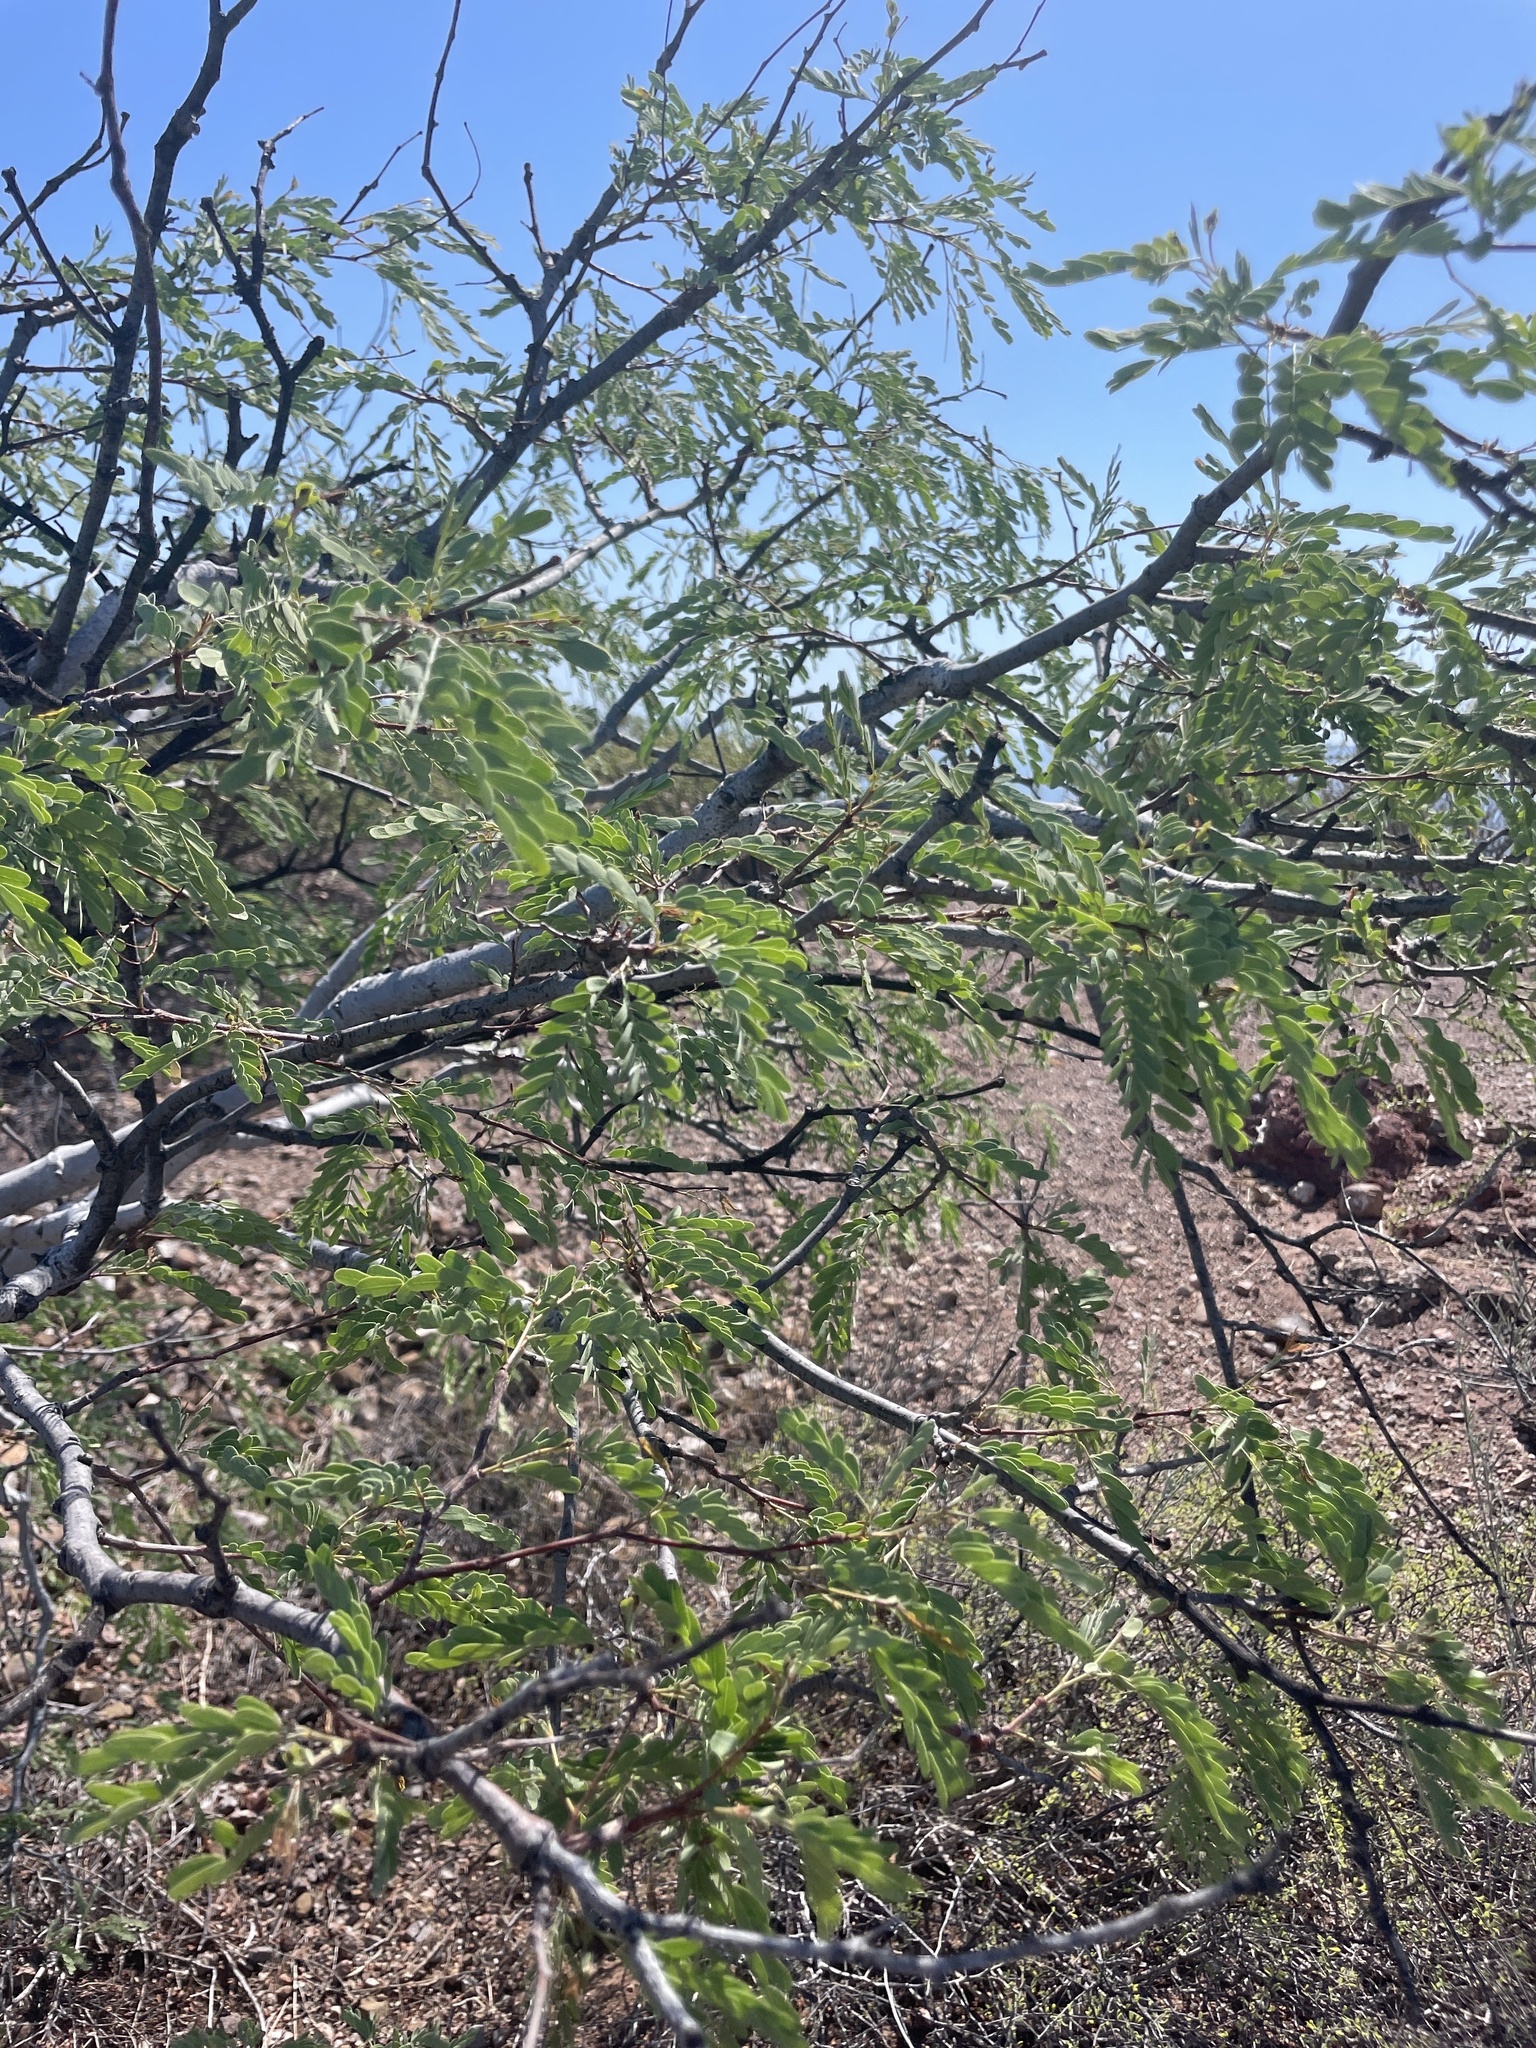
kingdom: Plantae
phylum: Tracheophyta
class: Magnoliopsida
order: Fabales
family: Fabaceae
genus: Lysiloma
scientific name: Lysiloma candidum
